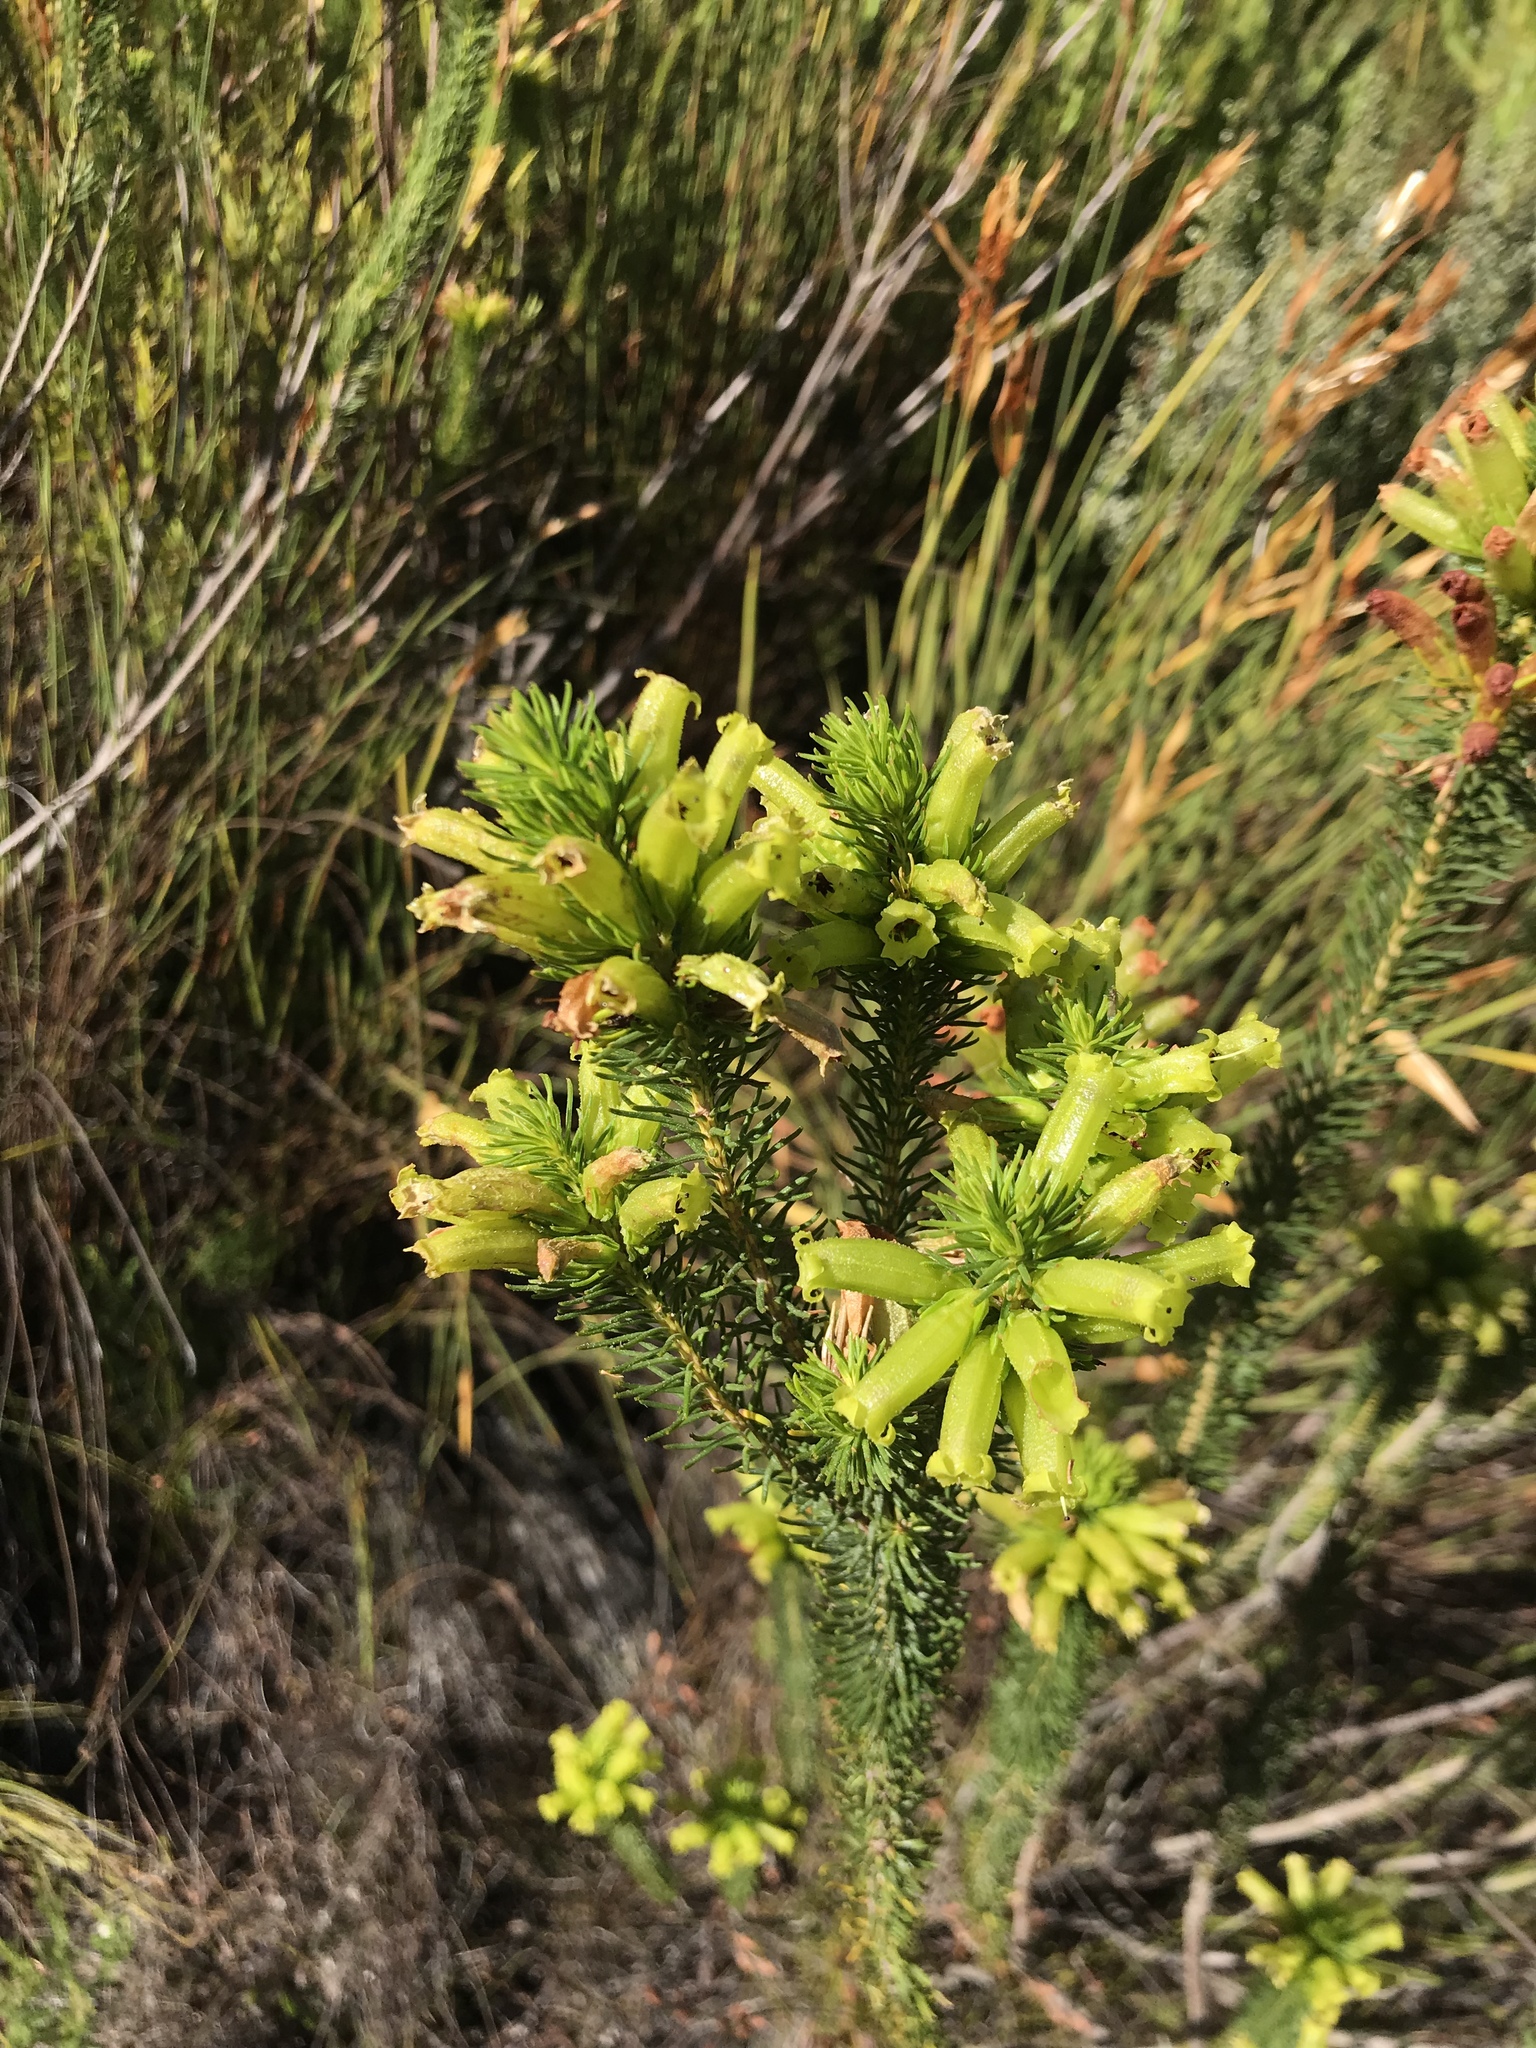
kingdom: Plantae
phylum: Tracheophyta
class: Magnoliopsida
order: Ericales
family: Ericaceae
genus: Erica
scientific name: Erica viscaria
